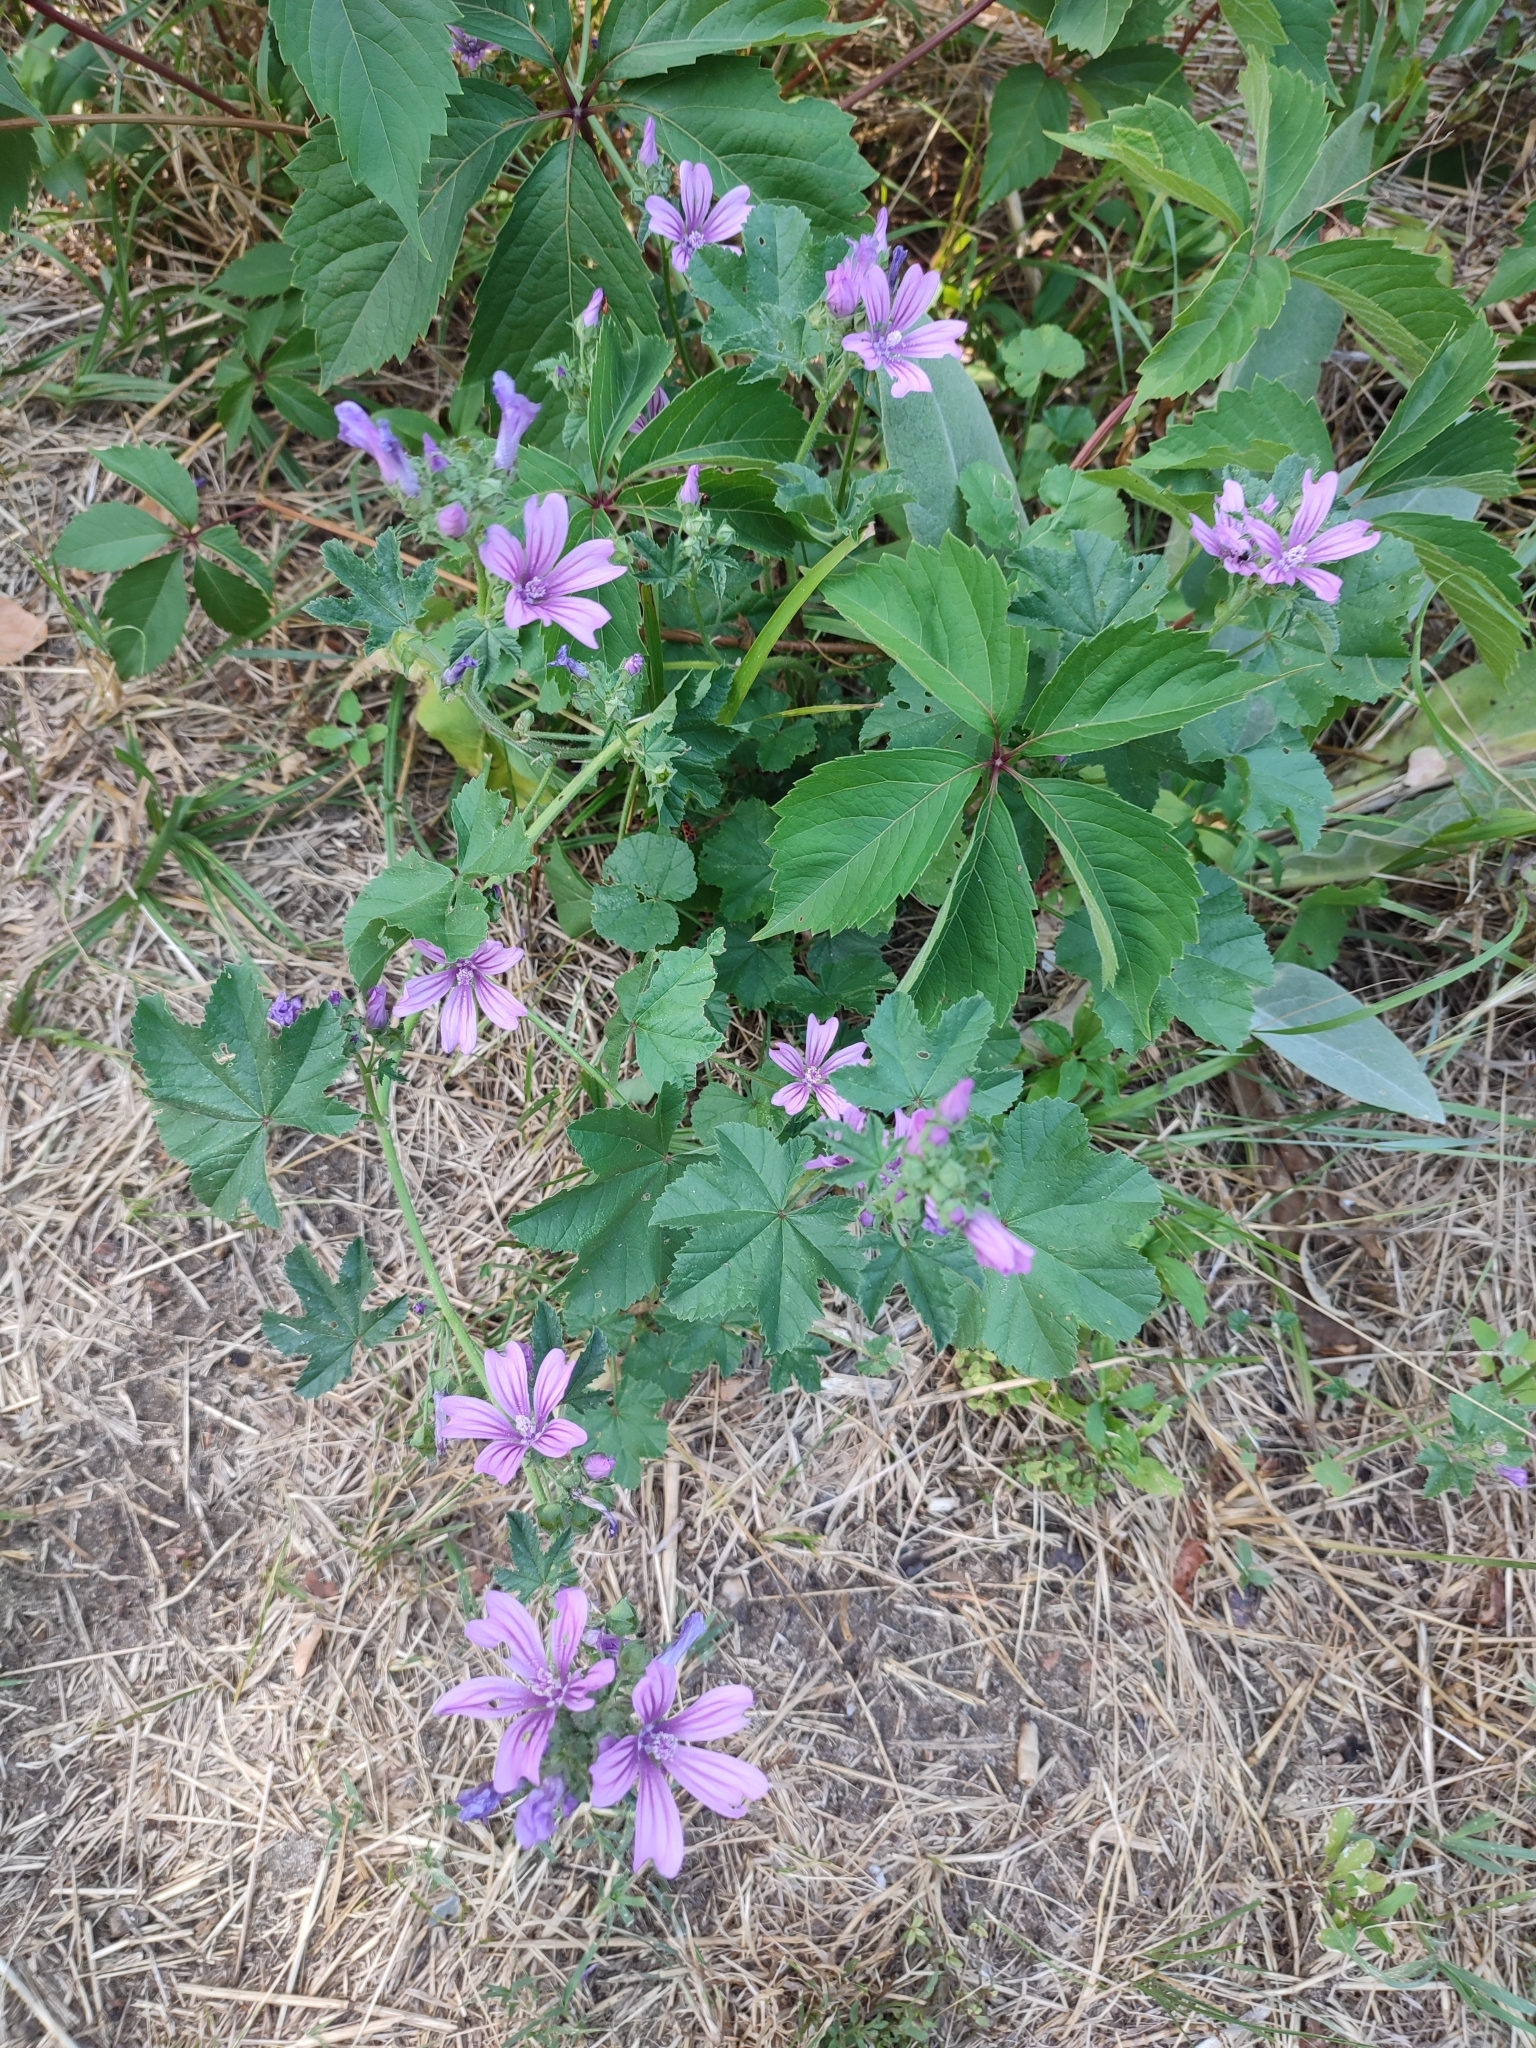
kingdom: Plantae
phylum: Tracheophyta
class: Magnoliopsida
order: Malvales
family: Malvaceae
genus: Malva
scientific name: Malva sylvestris
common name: Common mallow
